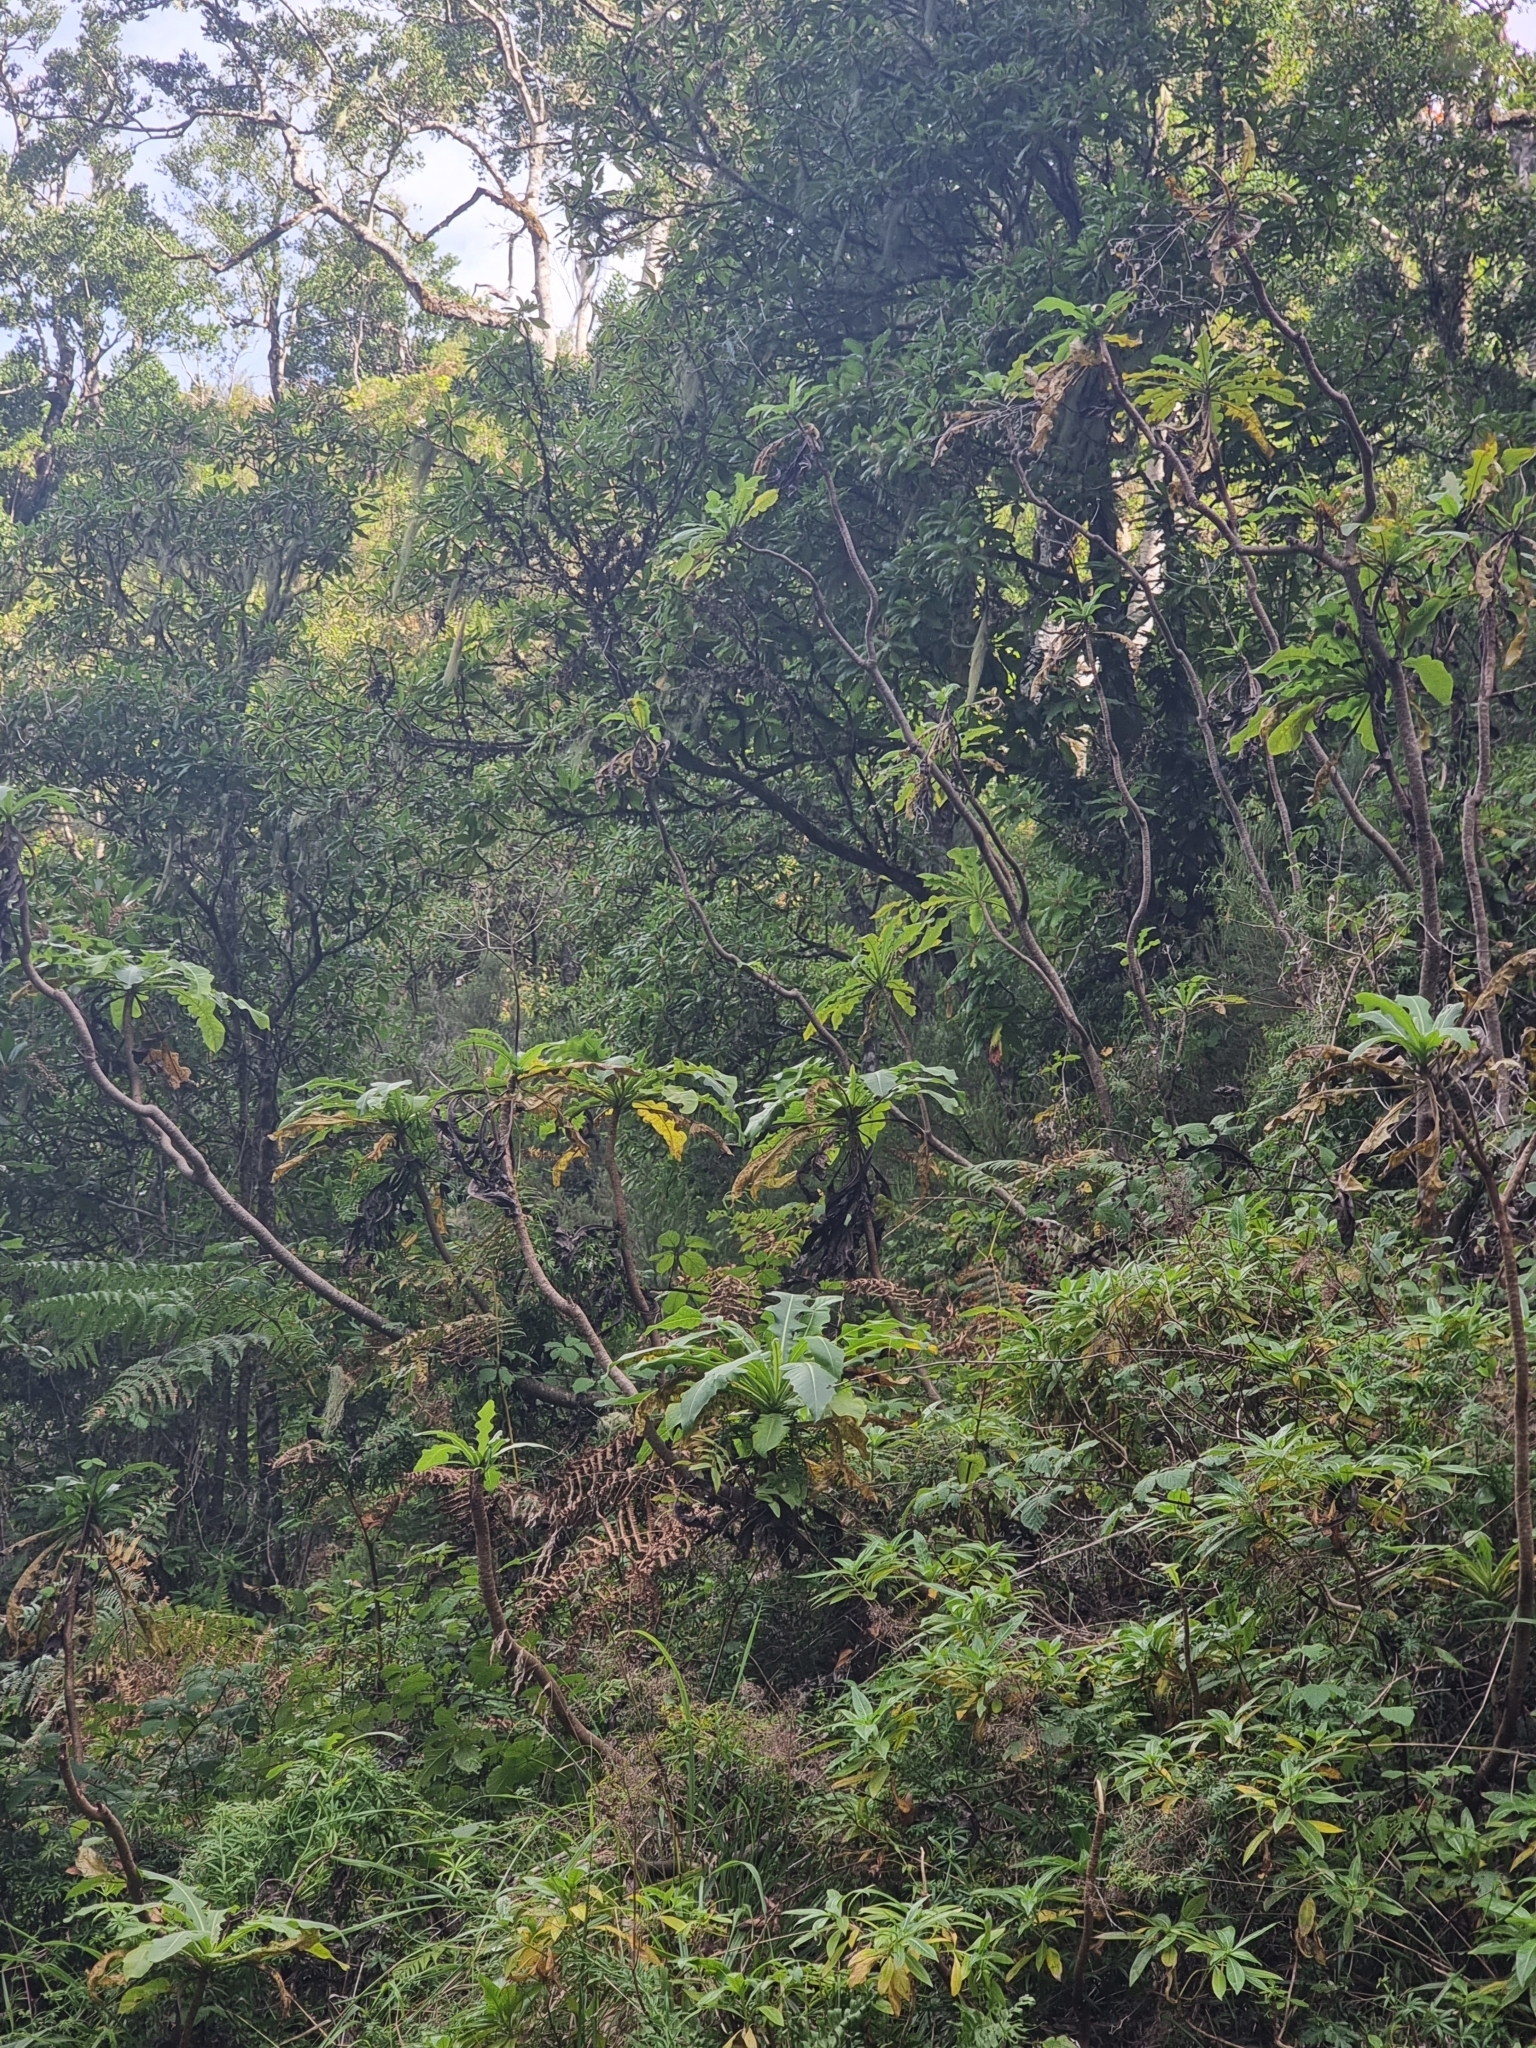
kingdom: Plantae
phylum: Tracheophyta
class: Magnoliopsida
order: Asterales
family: Asteraceae
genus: Sonchus
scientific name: Sonchus fruticosus
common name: Shrubby sow-thistle
